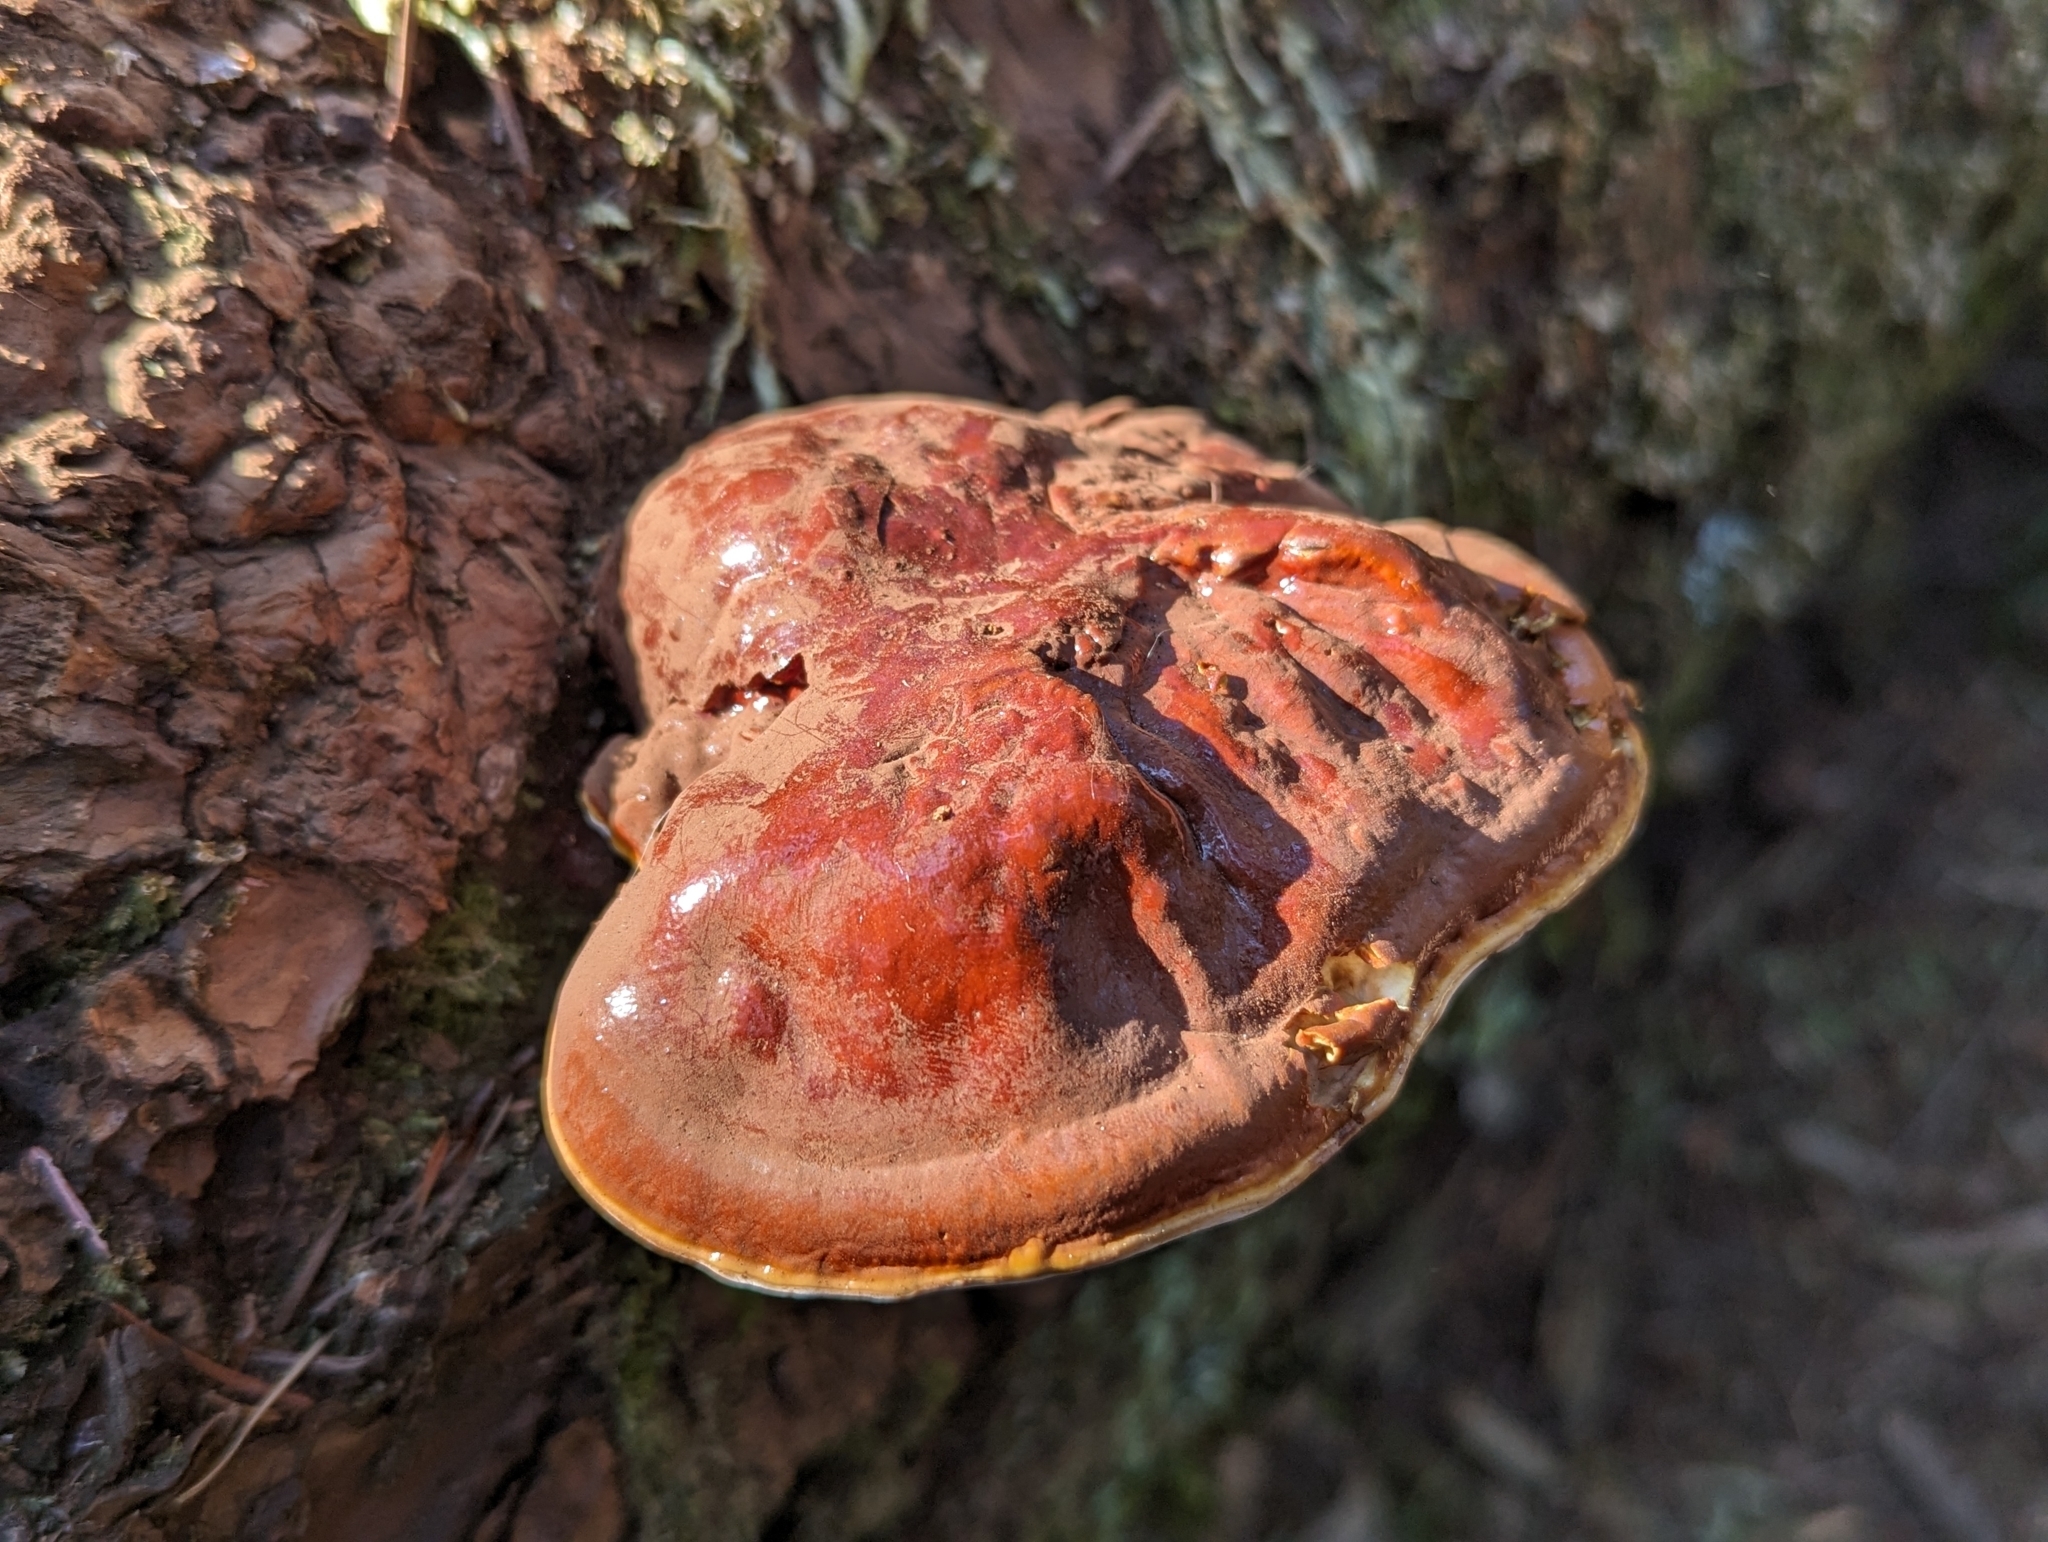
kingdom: Fungi
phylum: Basidiomycota
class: Agaricomycetes
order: Polyporales
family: Polyporaceae
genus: Ganoderma
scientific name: Ganoderma oregonense
